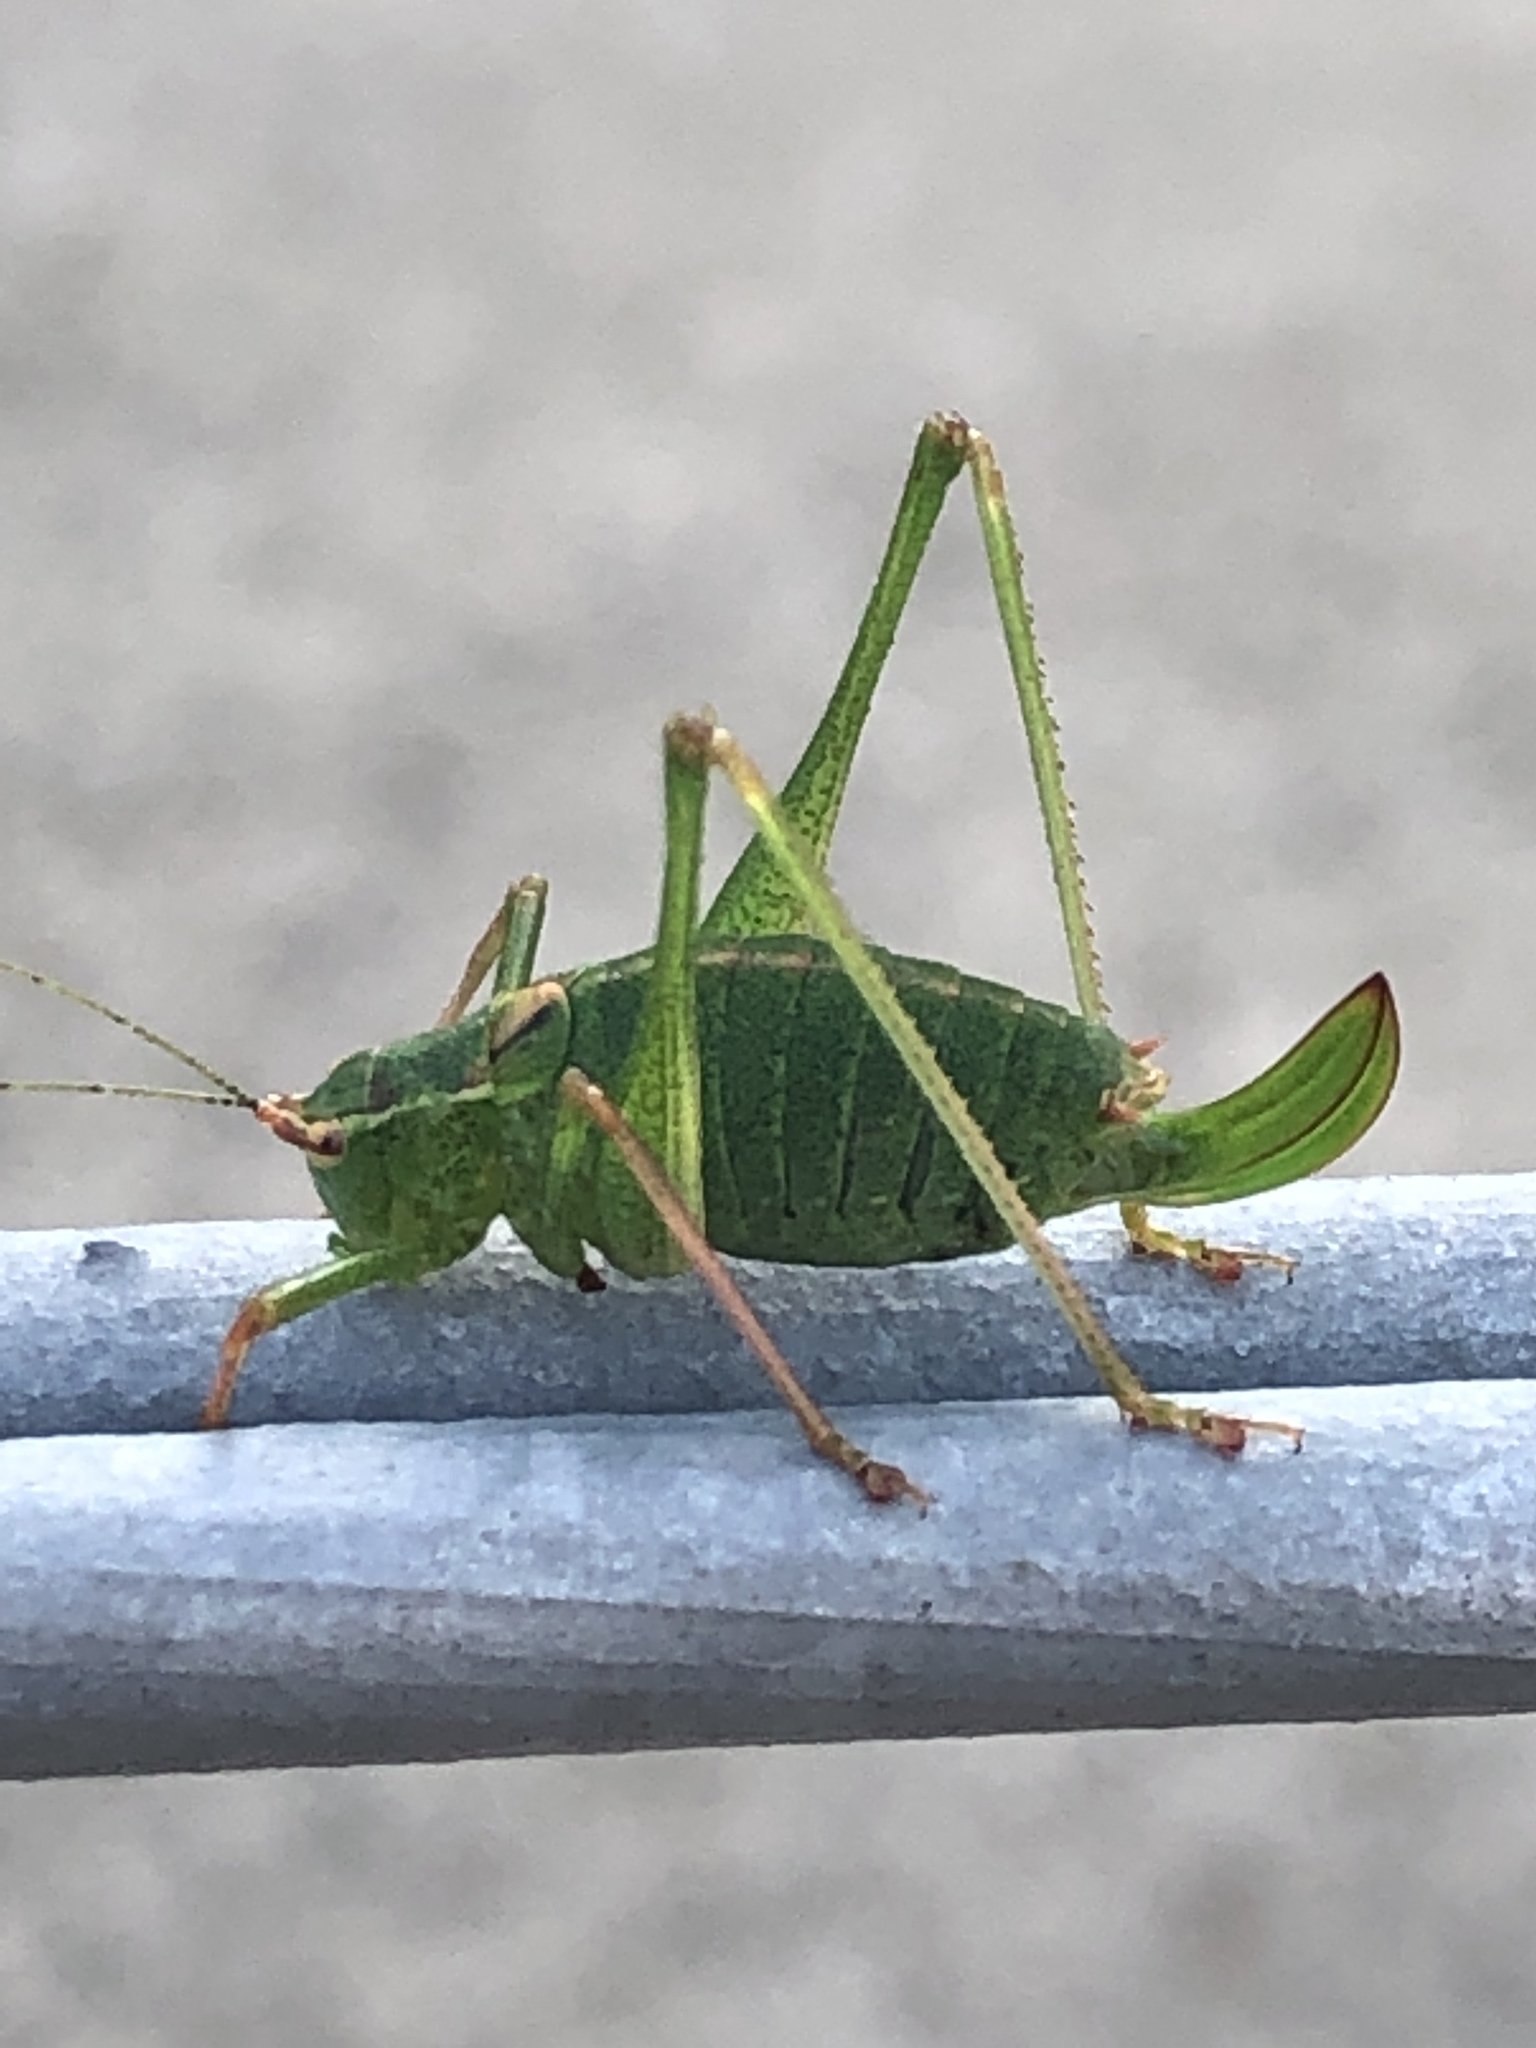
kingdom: Animalia
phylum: Arthropoda
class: Insecta
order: Orthoptera
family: Tettigoniidae
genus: Leptophyes
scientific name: Leptophyes punctatissima
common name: Speckled bush-cricket
